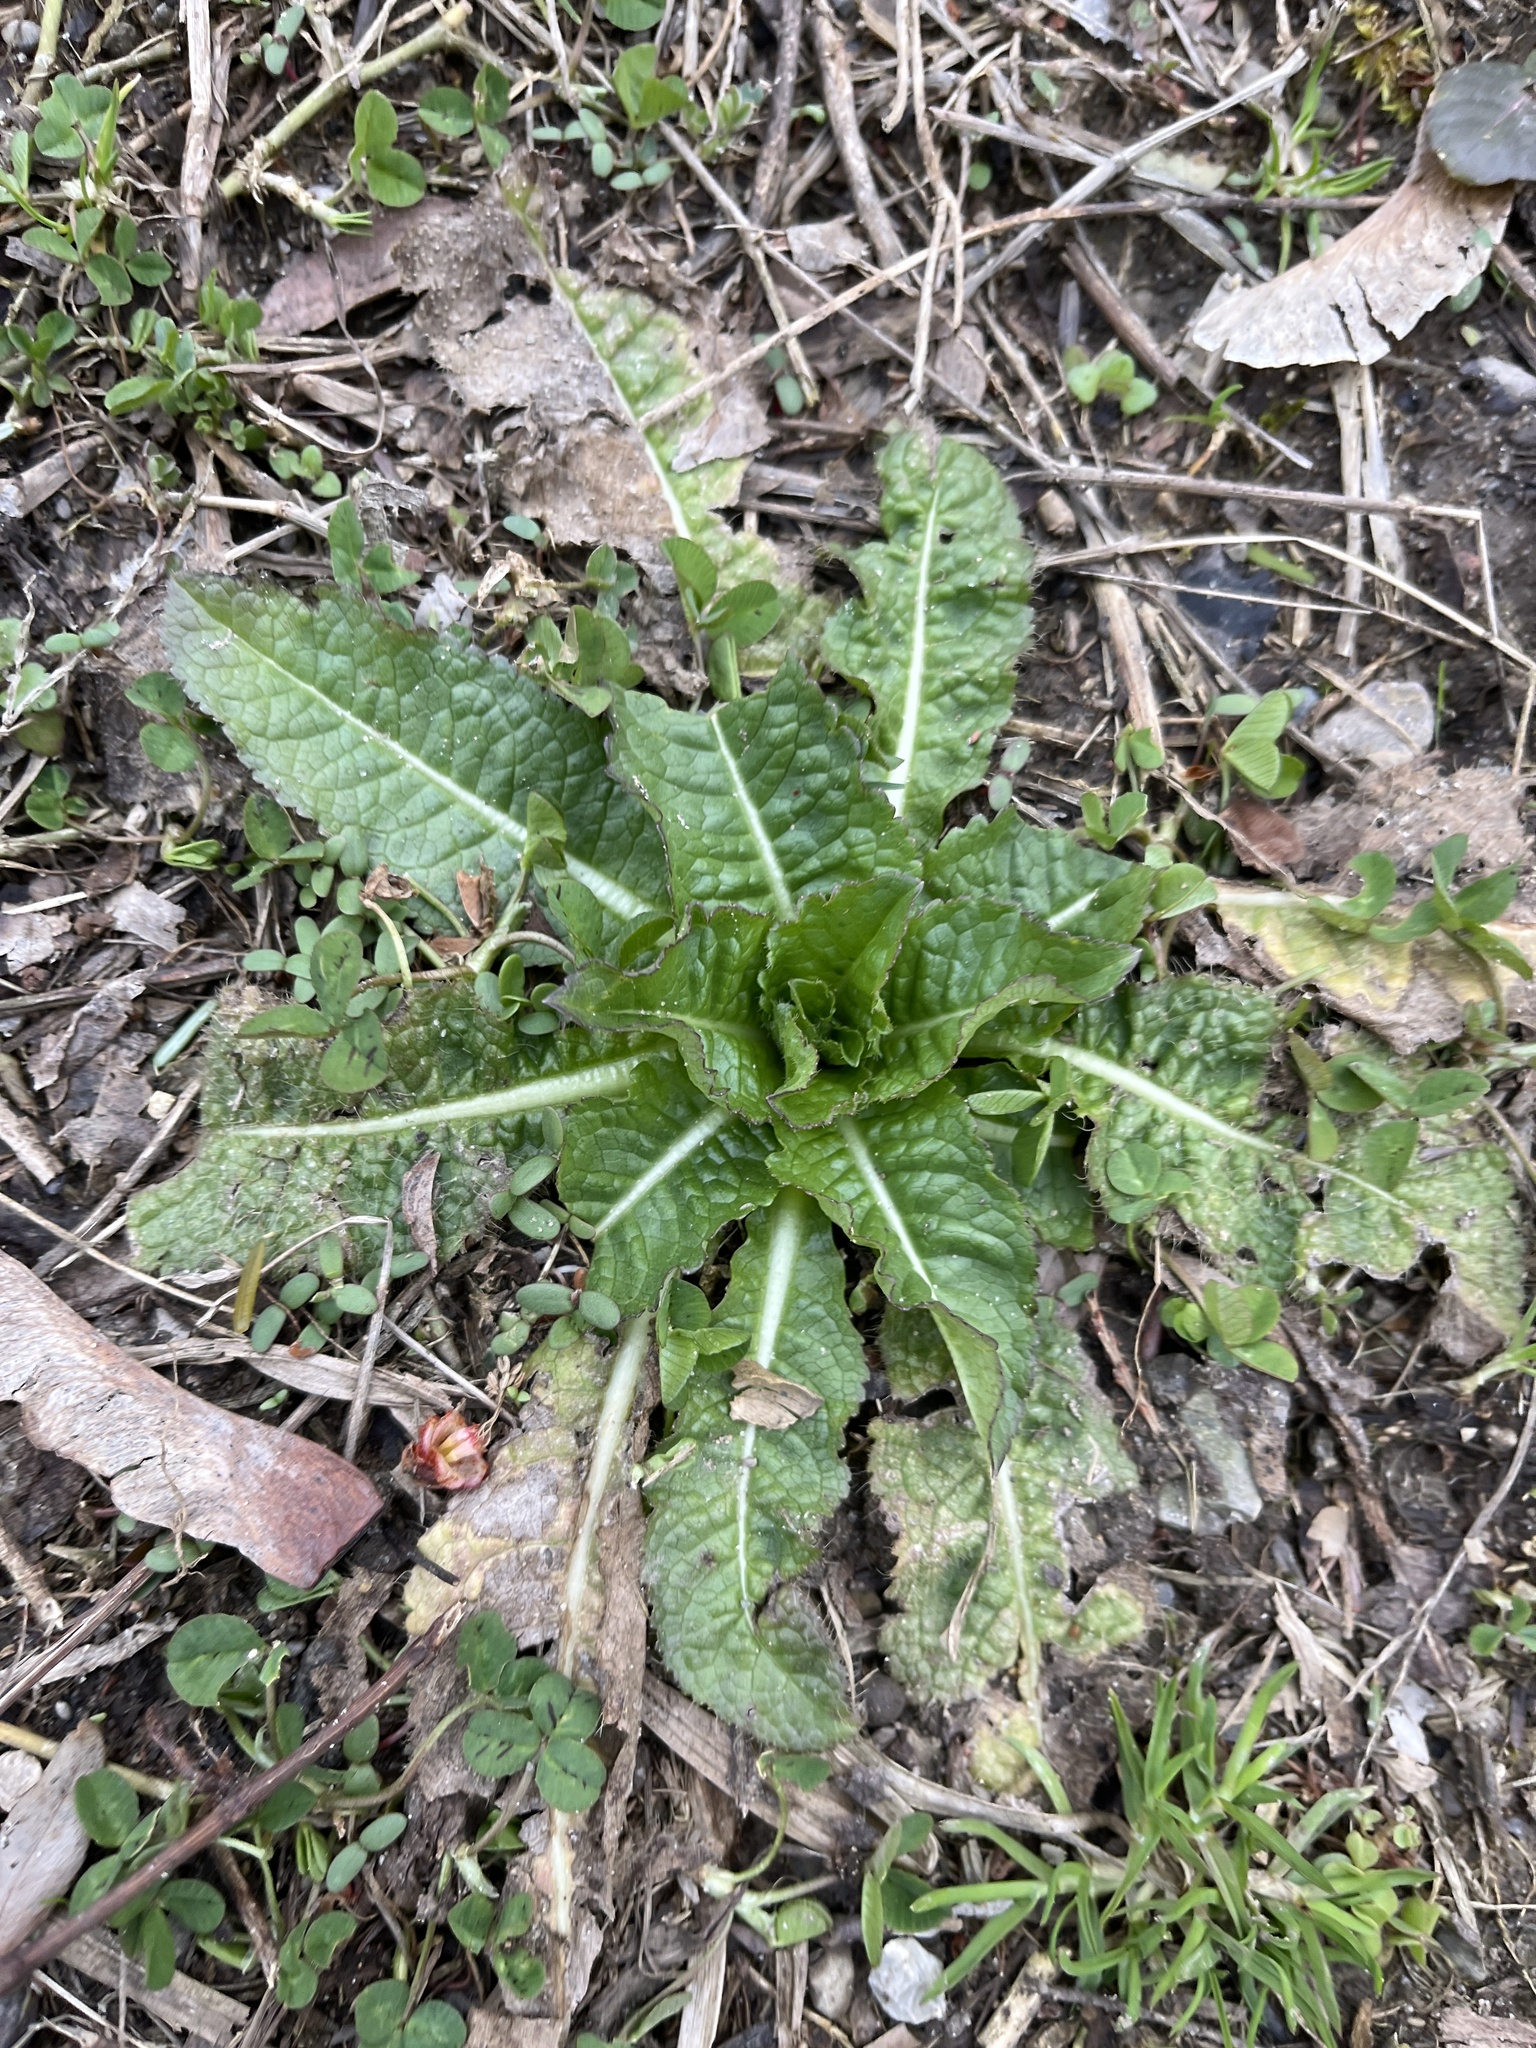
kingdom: Plantae
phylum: Tracheophyta
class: Magnoliopsida
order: Dipsacales
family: Caprifoliaceae
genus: Dipsacus
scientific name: Dipsacus fullonum
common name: Teasel
